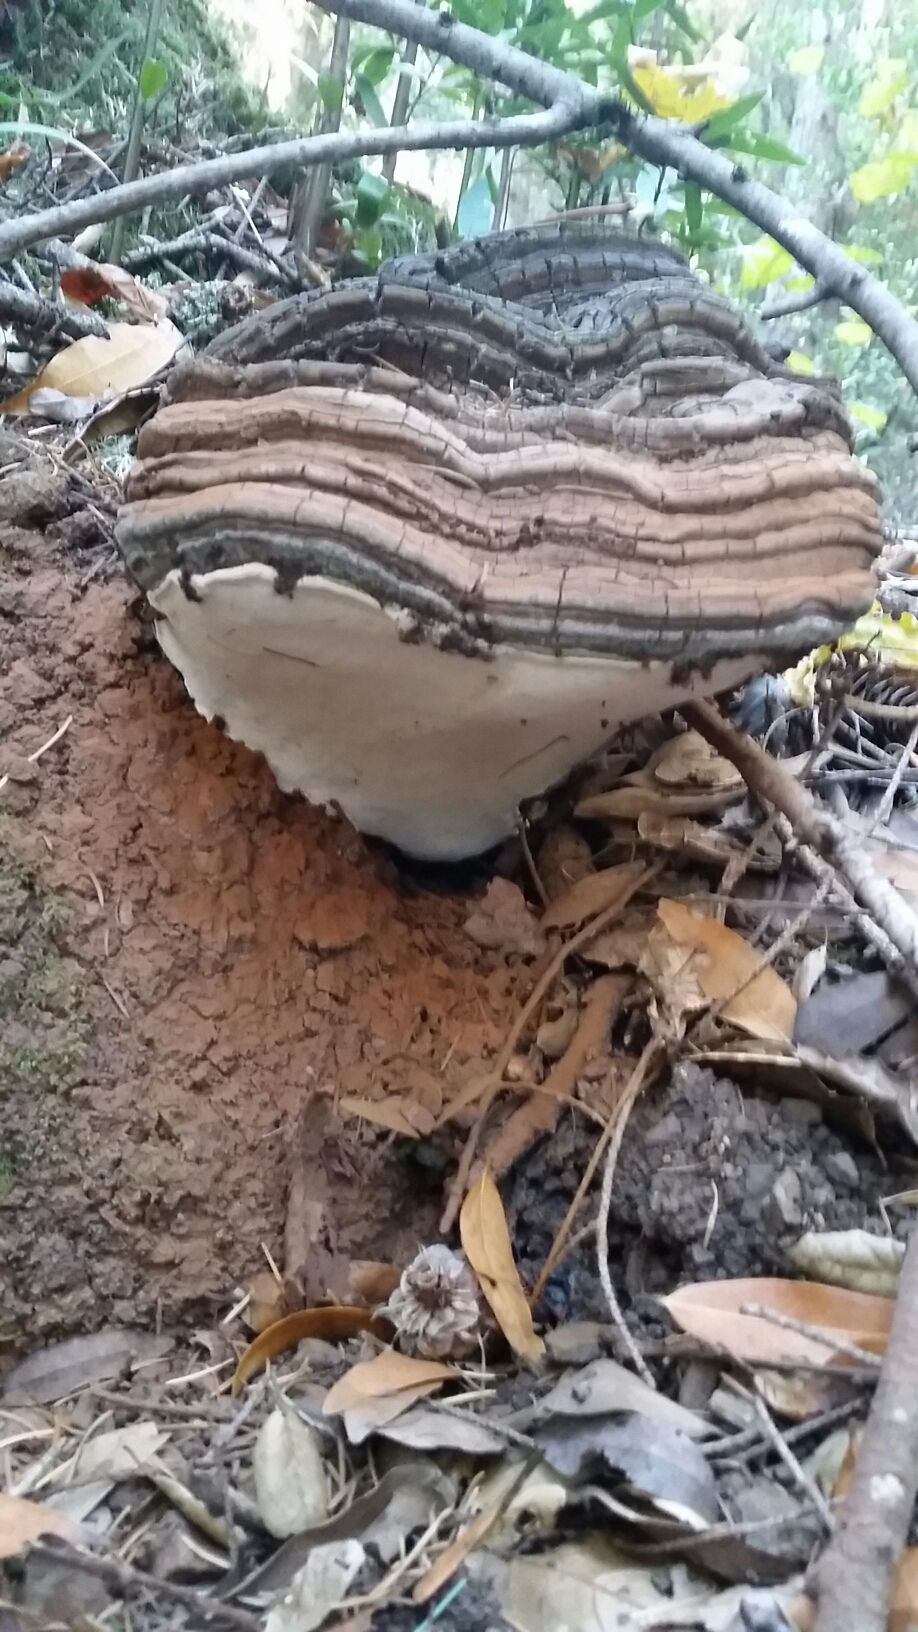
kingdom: Fungi
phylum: Basidiomycota
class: Agaricomycetes
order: Polyporales
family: Polyporaceae
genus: Ganoderma
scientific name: Ganoderma brownii
